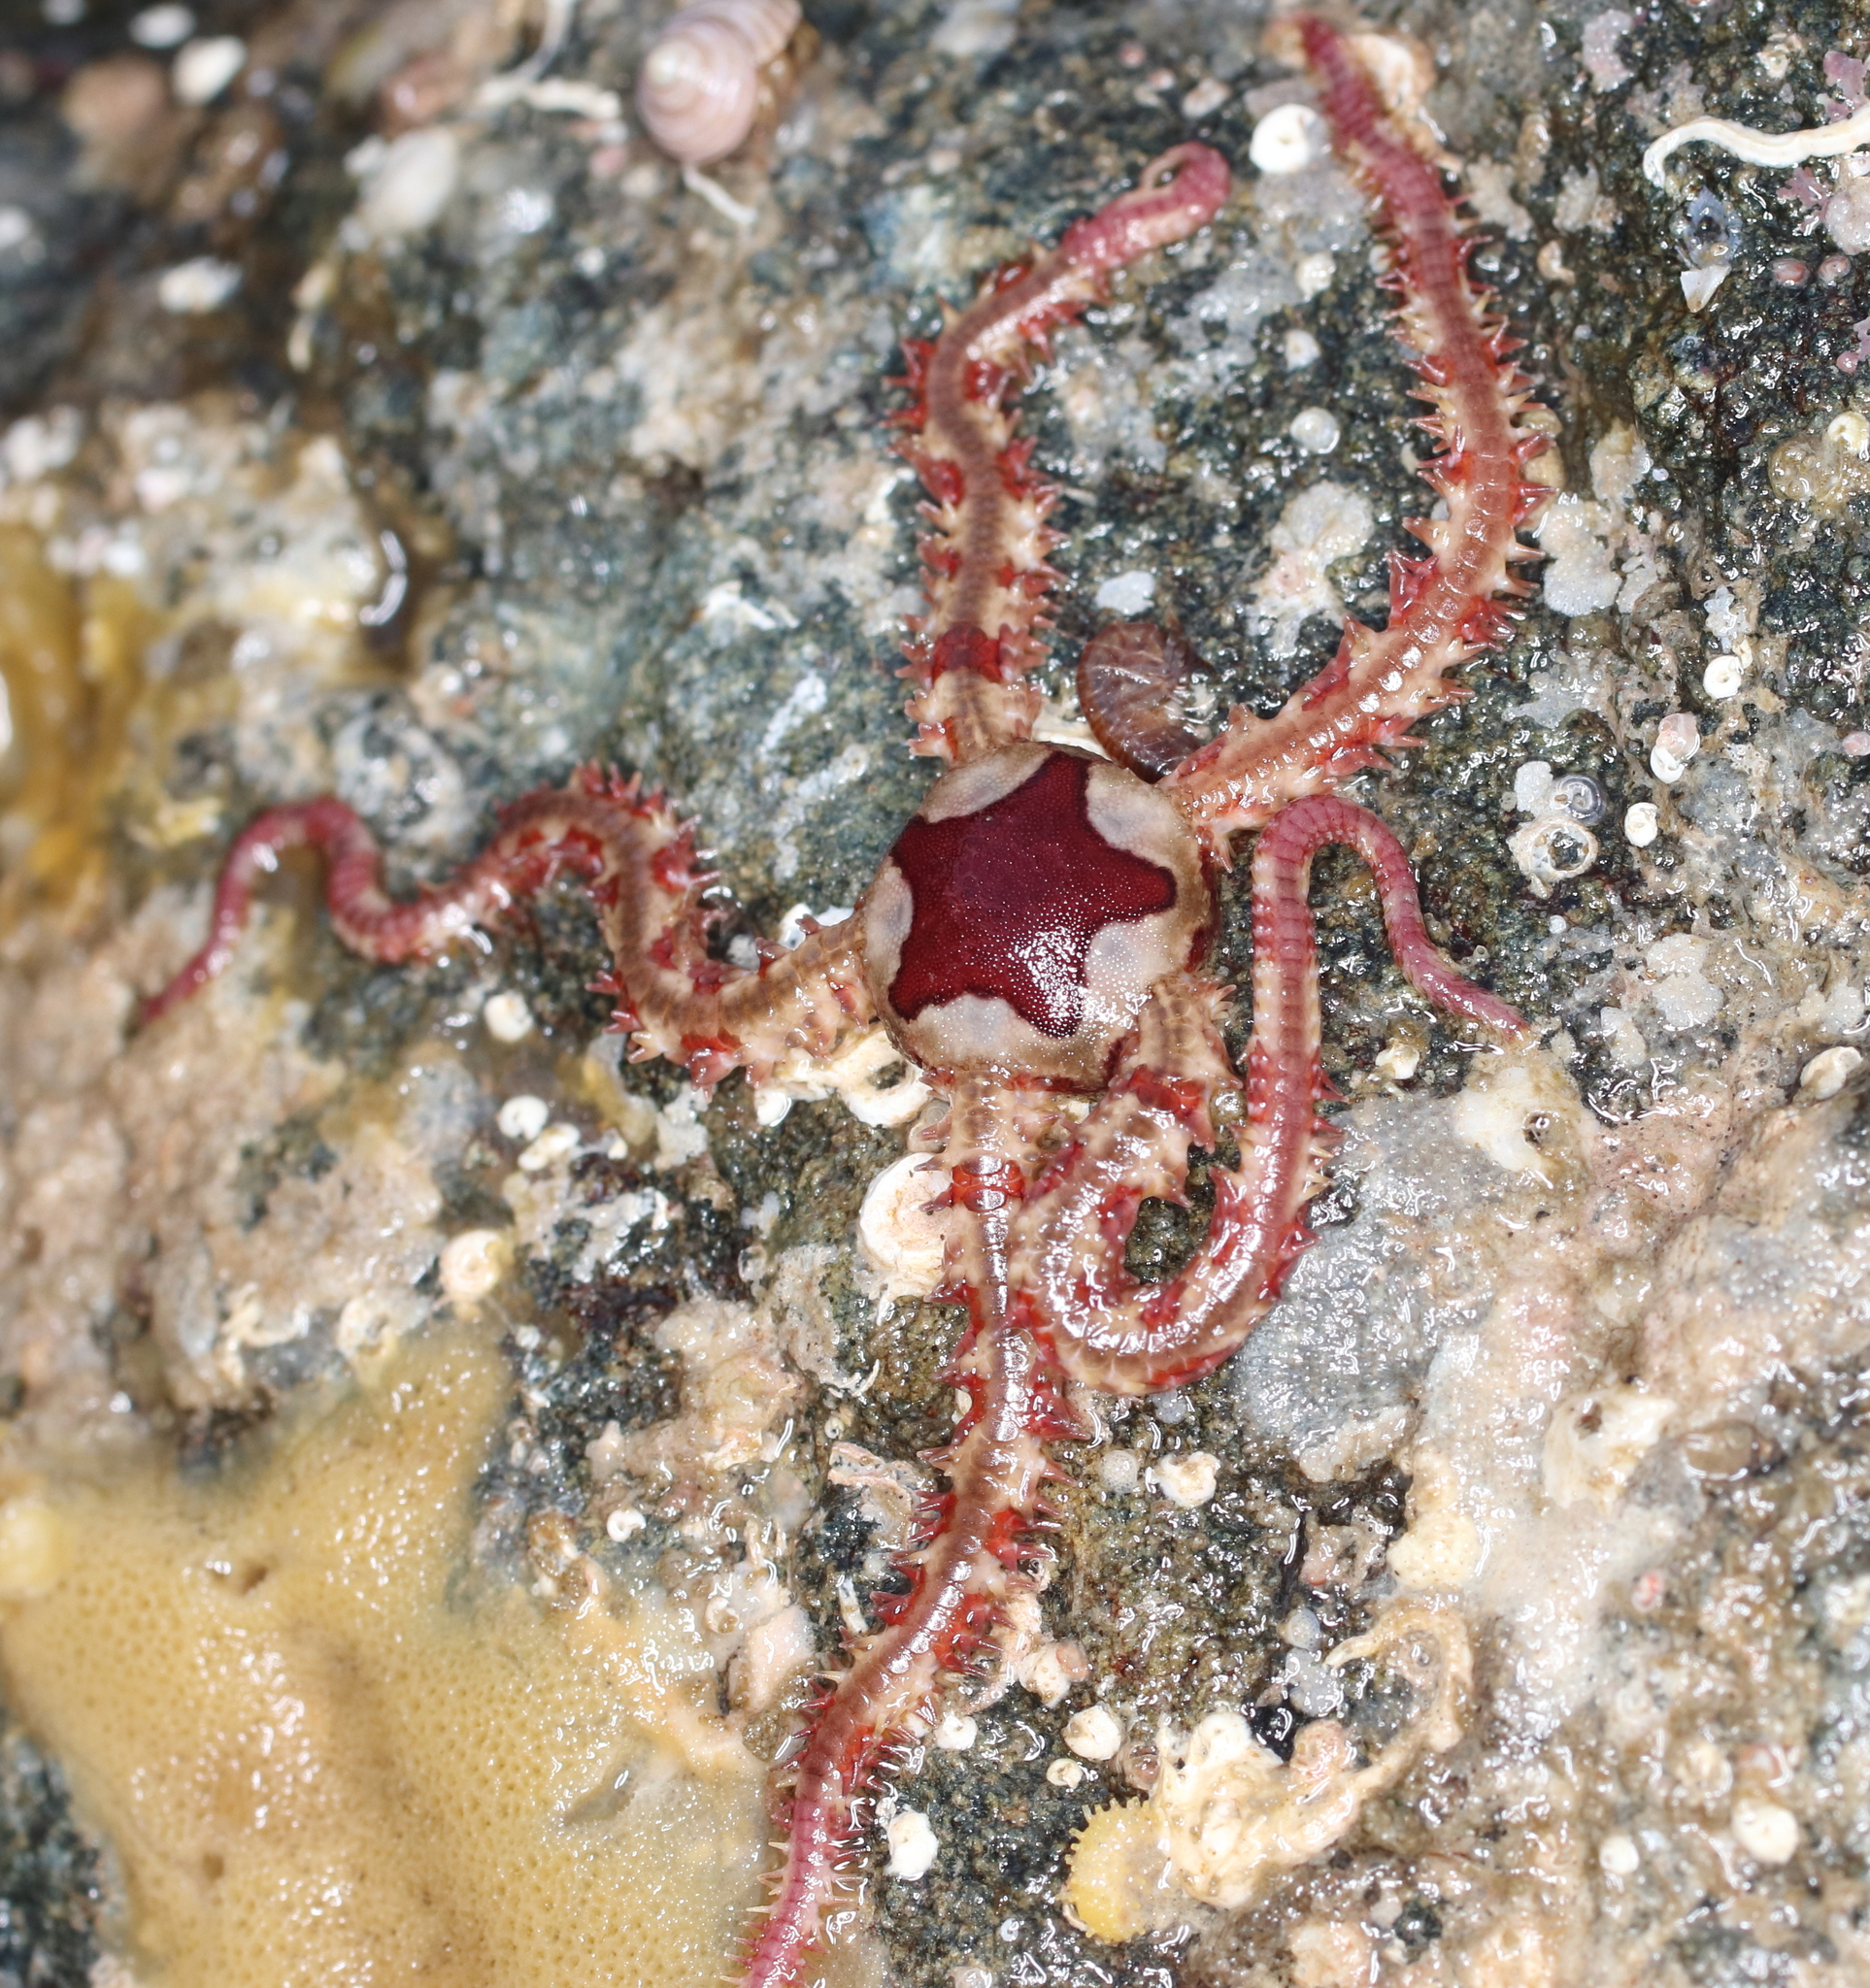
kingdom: Animalia
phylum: Echinodermata
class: Ophiuroidea
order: Amphilepidida
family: Ophiopholidae
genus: Ophiopholis
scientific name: Ophiopholis kennerlyi
